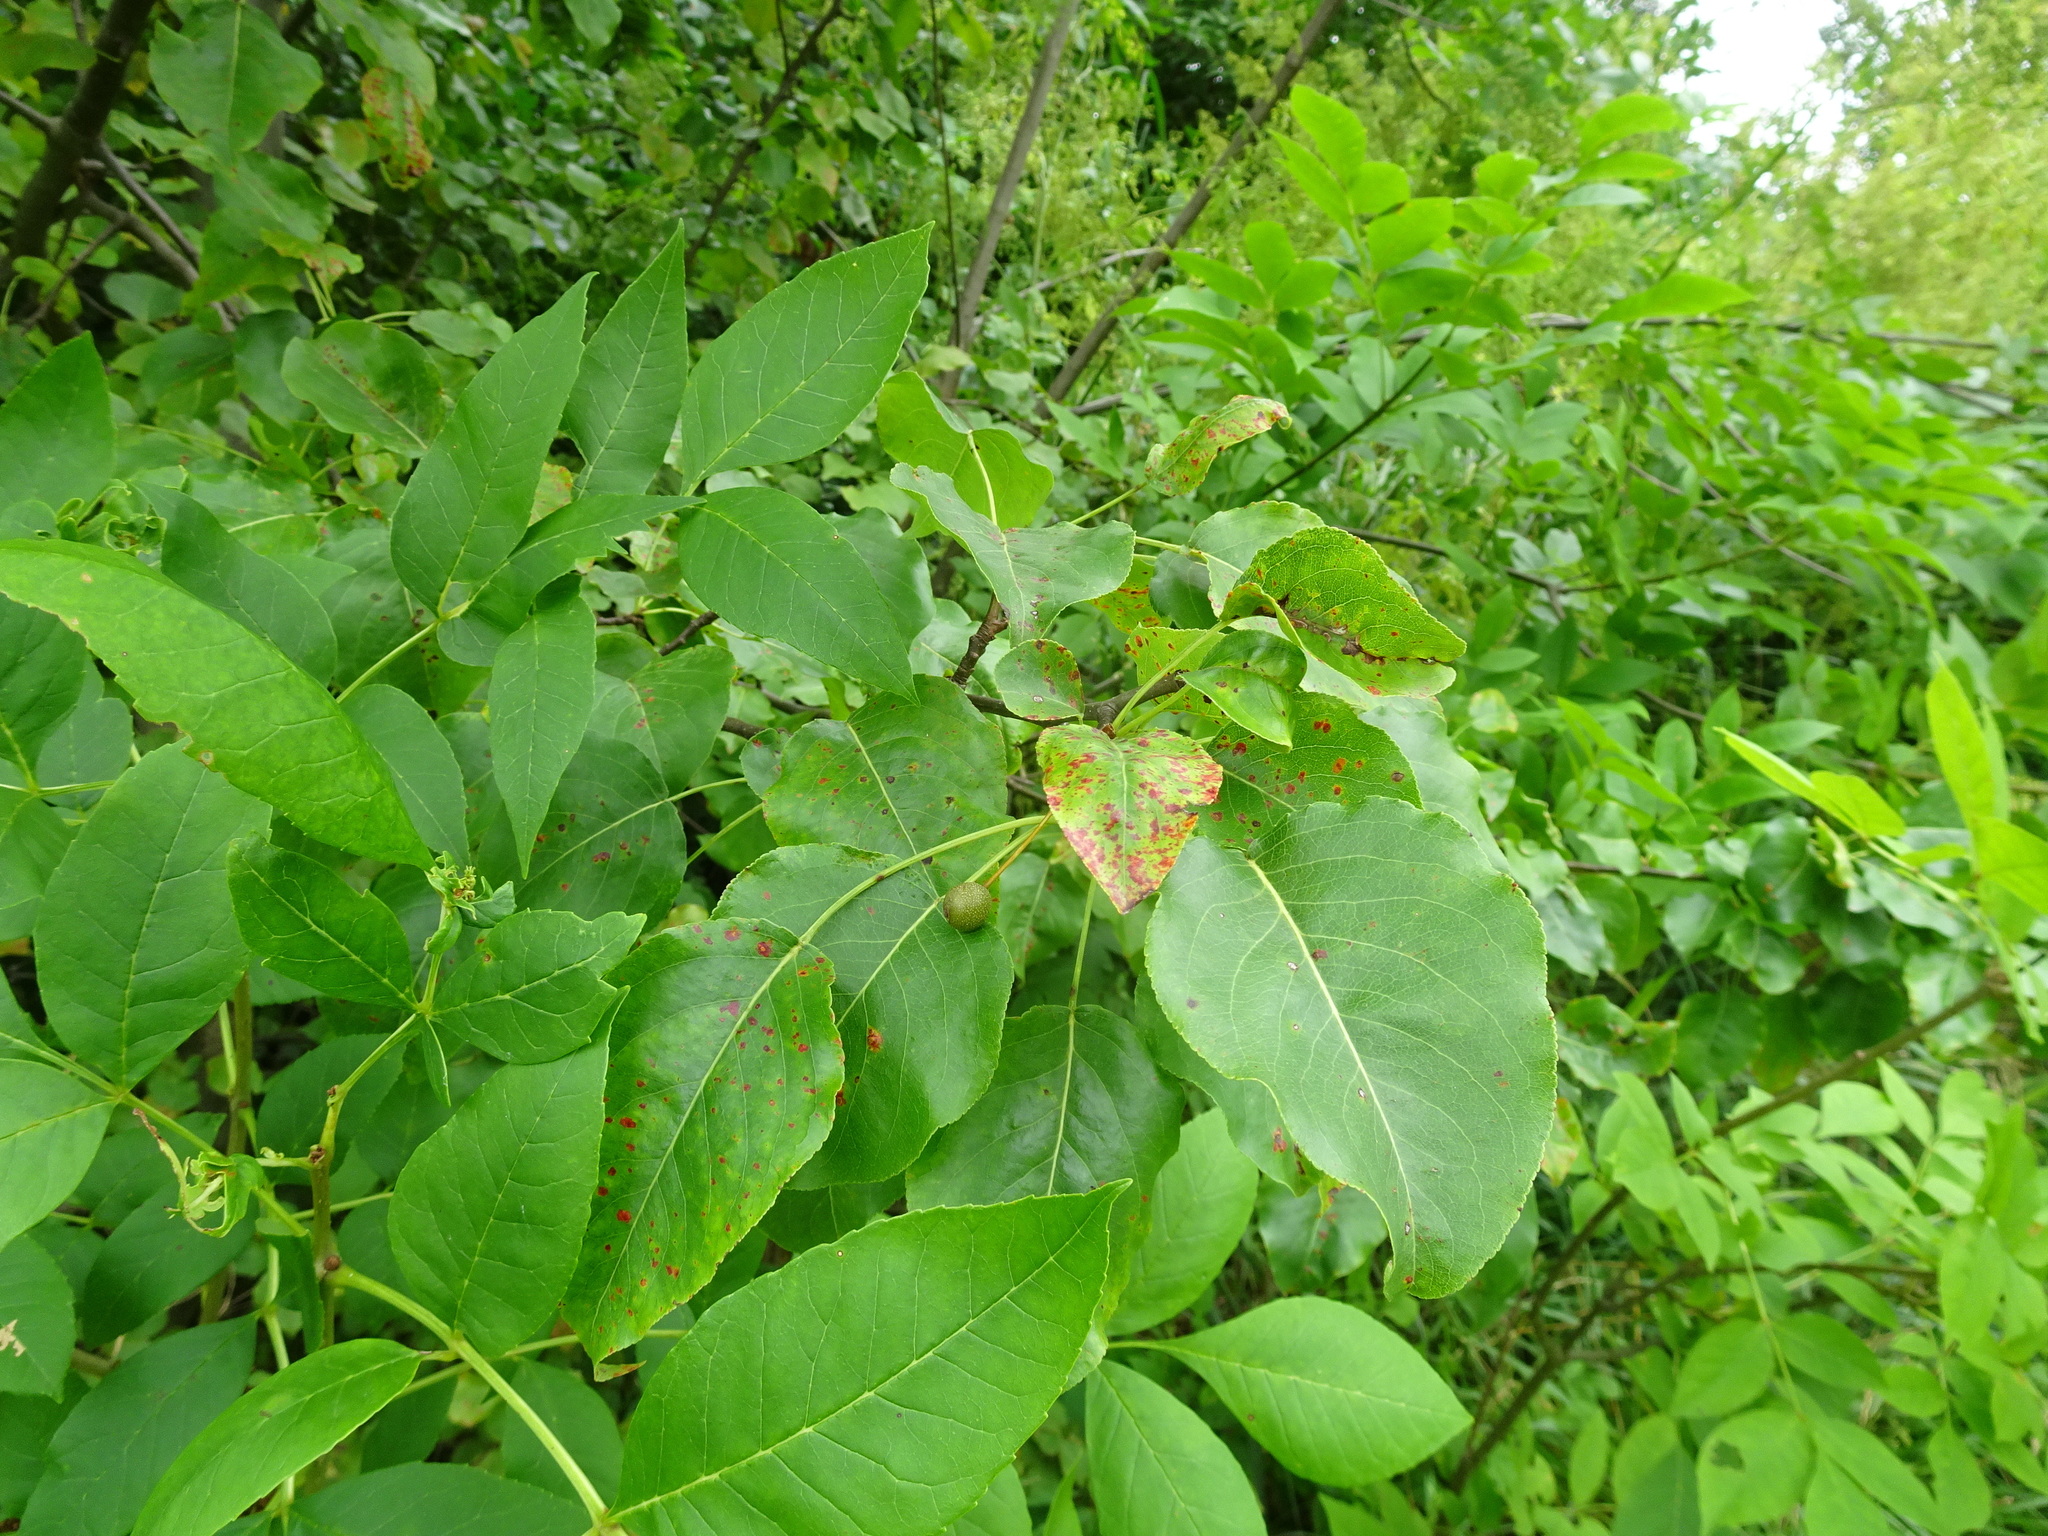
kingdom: Plantae
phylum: Tracheophyta
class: Magnoliopsida
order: Rosales
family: Rosaceae
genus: Pyrus
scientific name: Pyrus calleryana
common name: Callery pear
